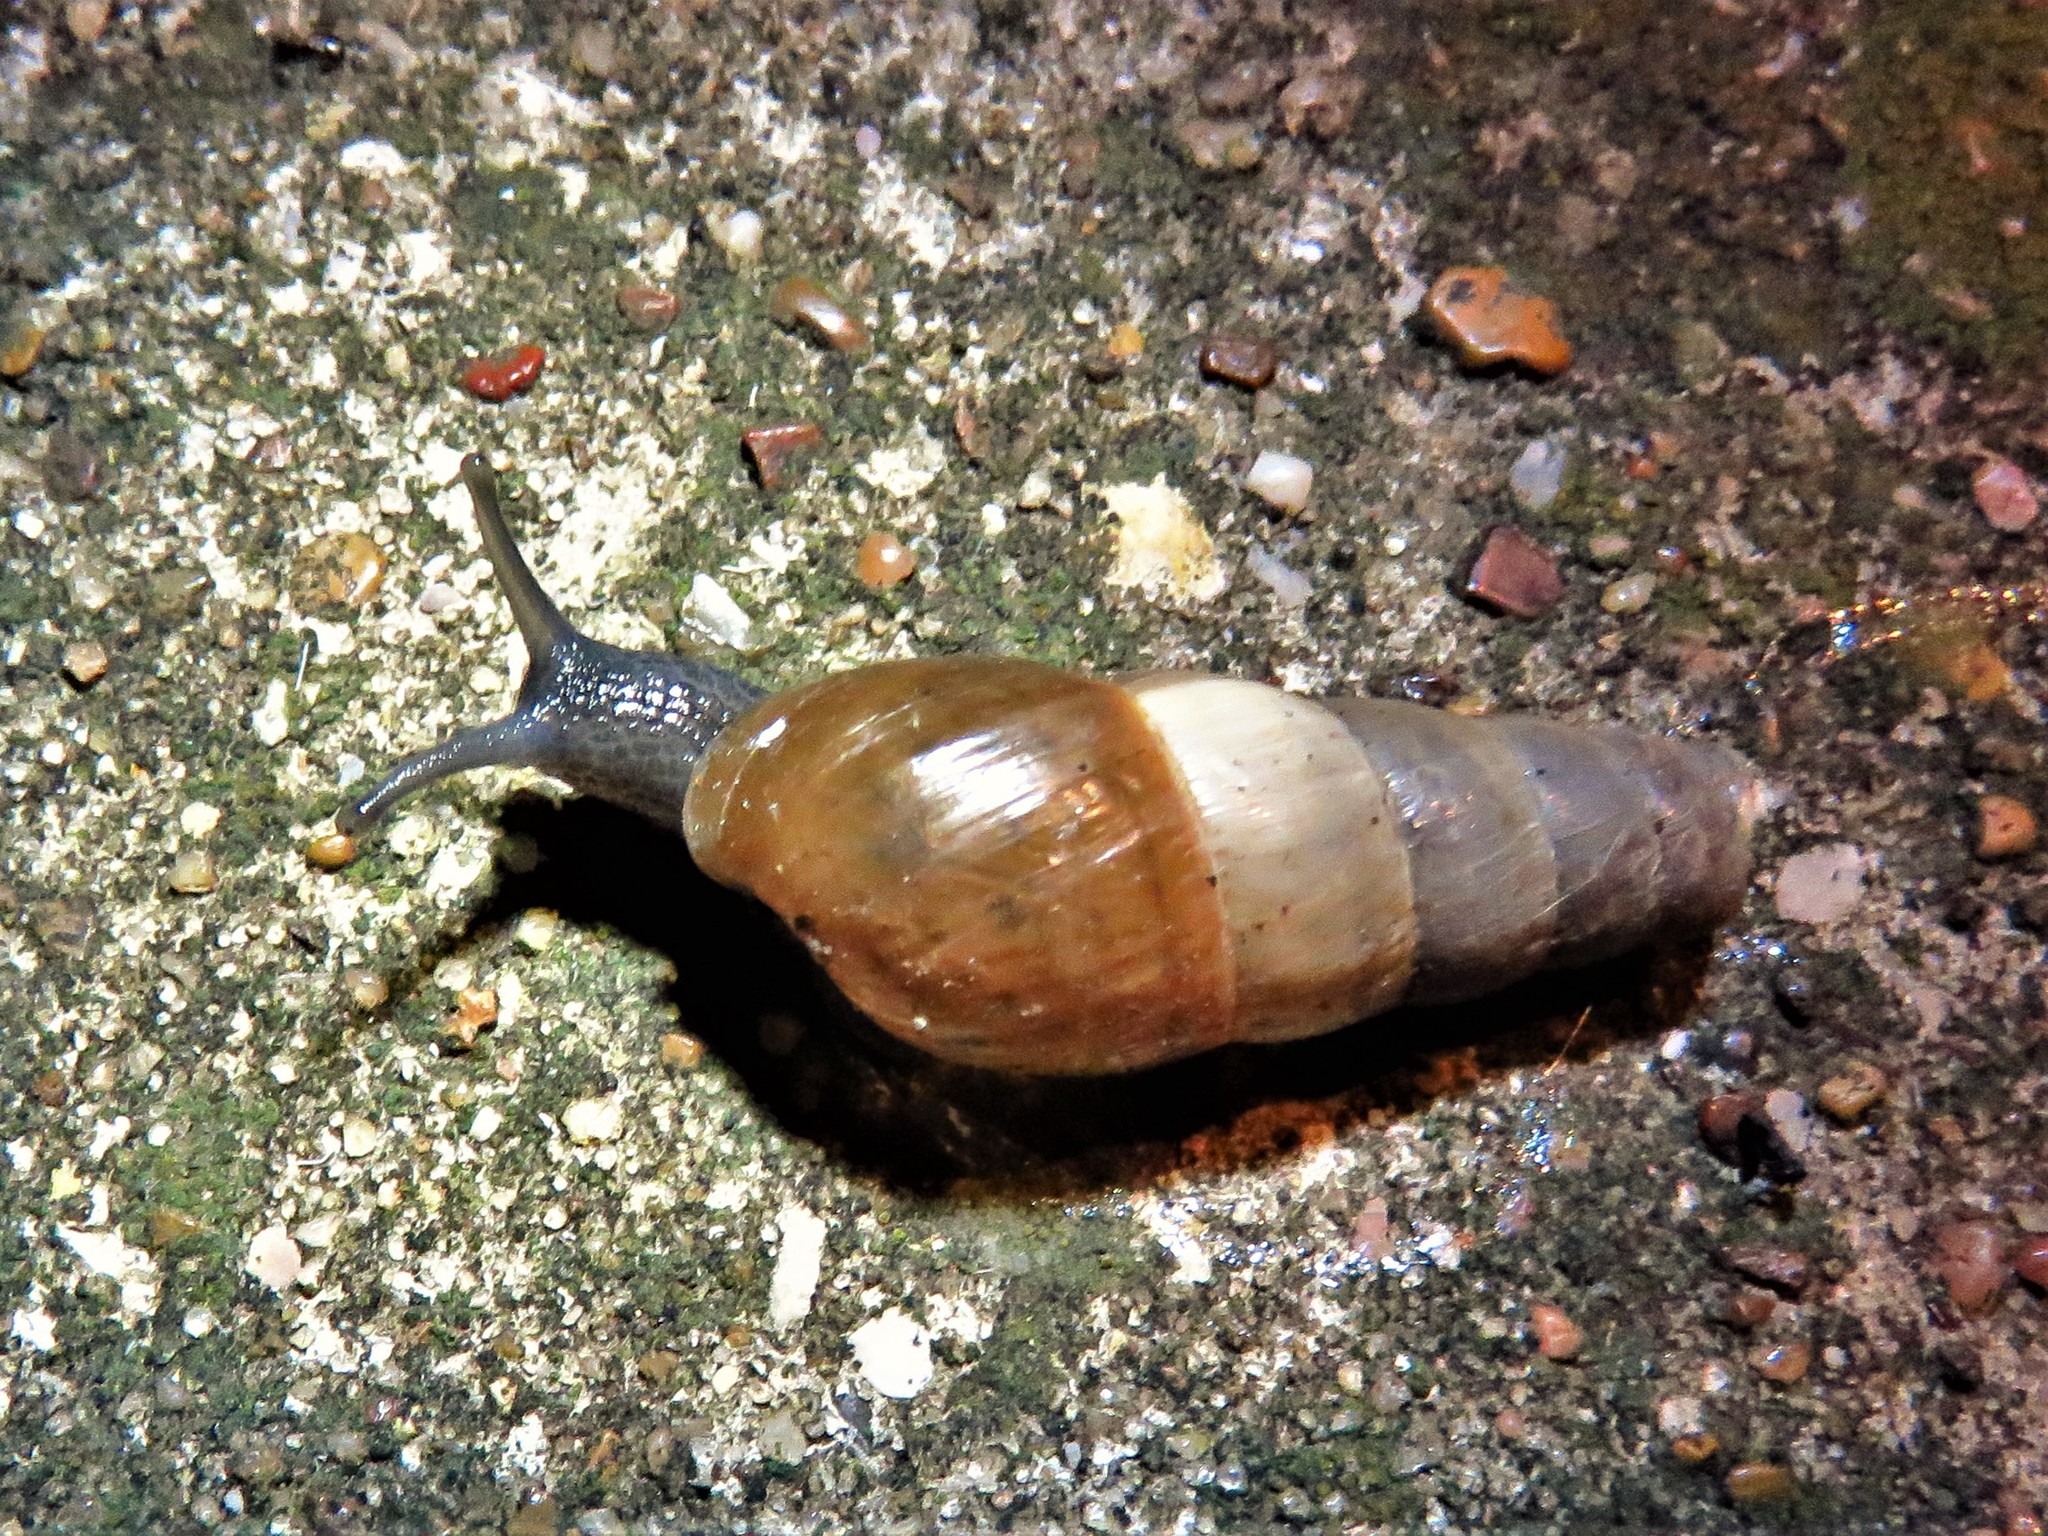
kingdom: Animalia
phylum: Mollusca
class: Gastropoda
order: Stylommatophora
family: Achatinidae
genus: Rumina
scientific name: Rumina decollata
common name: Decollate snail
